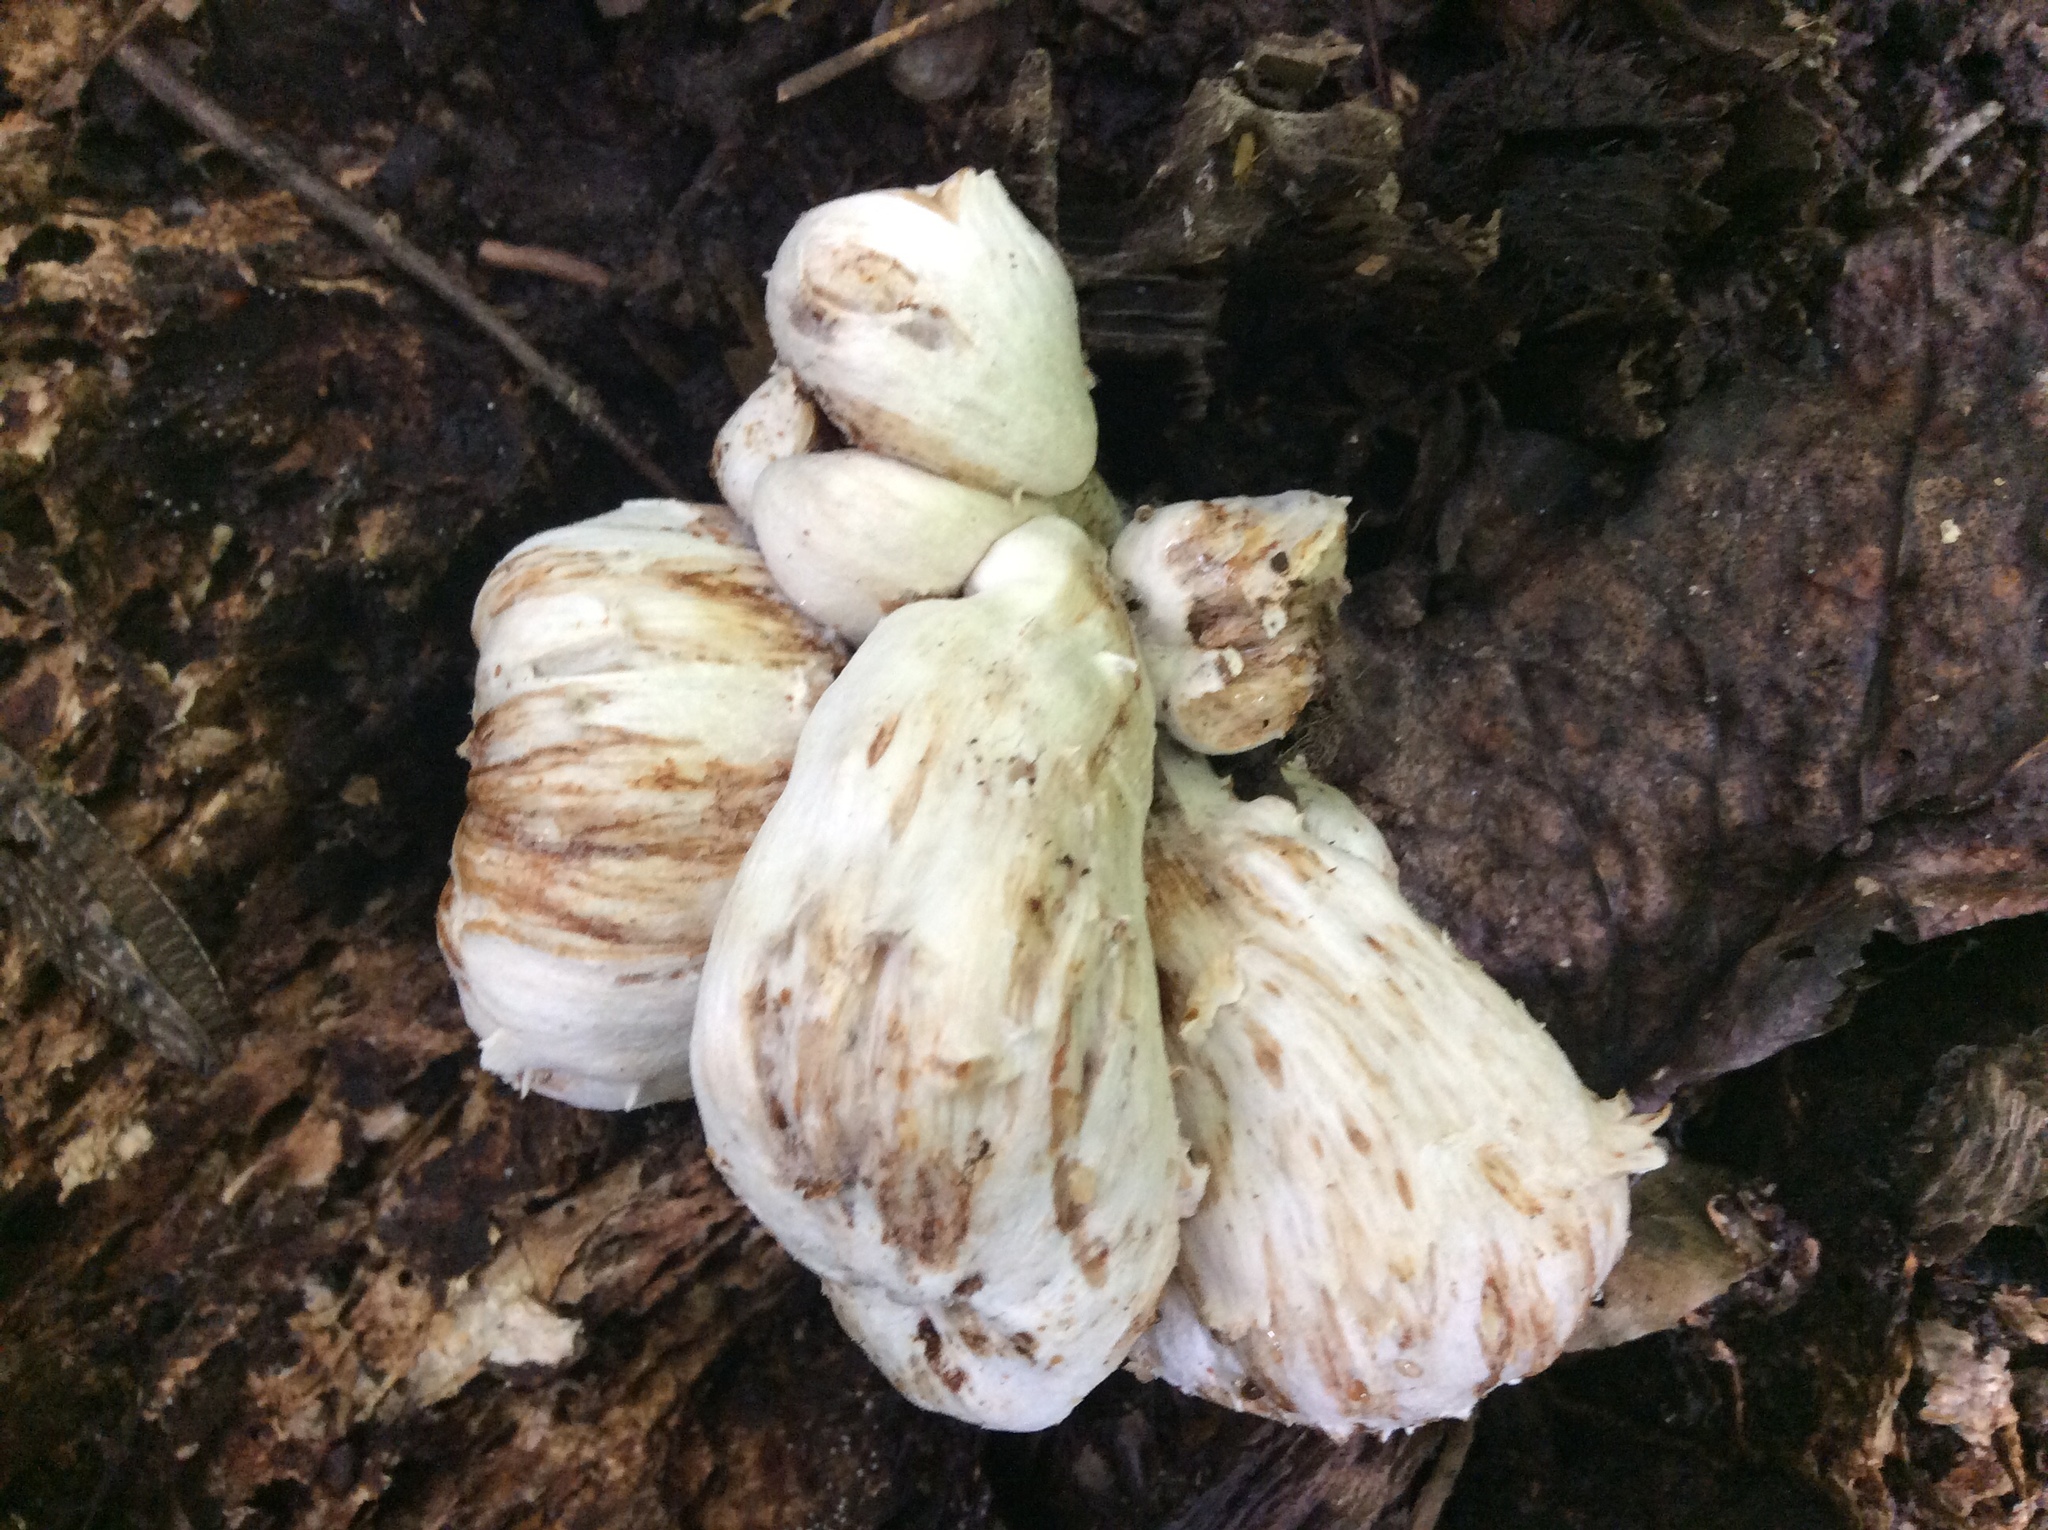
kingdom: Fungi
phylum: Basidiomycota
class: Agaricomycetes
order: Agaricales
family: Entolomataceae
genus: Entoloma
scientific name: Entoloma abortivum
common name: Aborted entoloma
